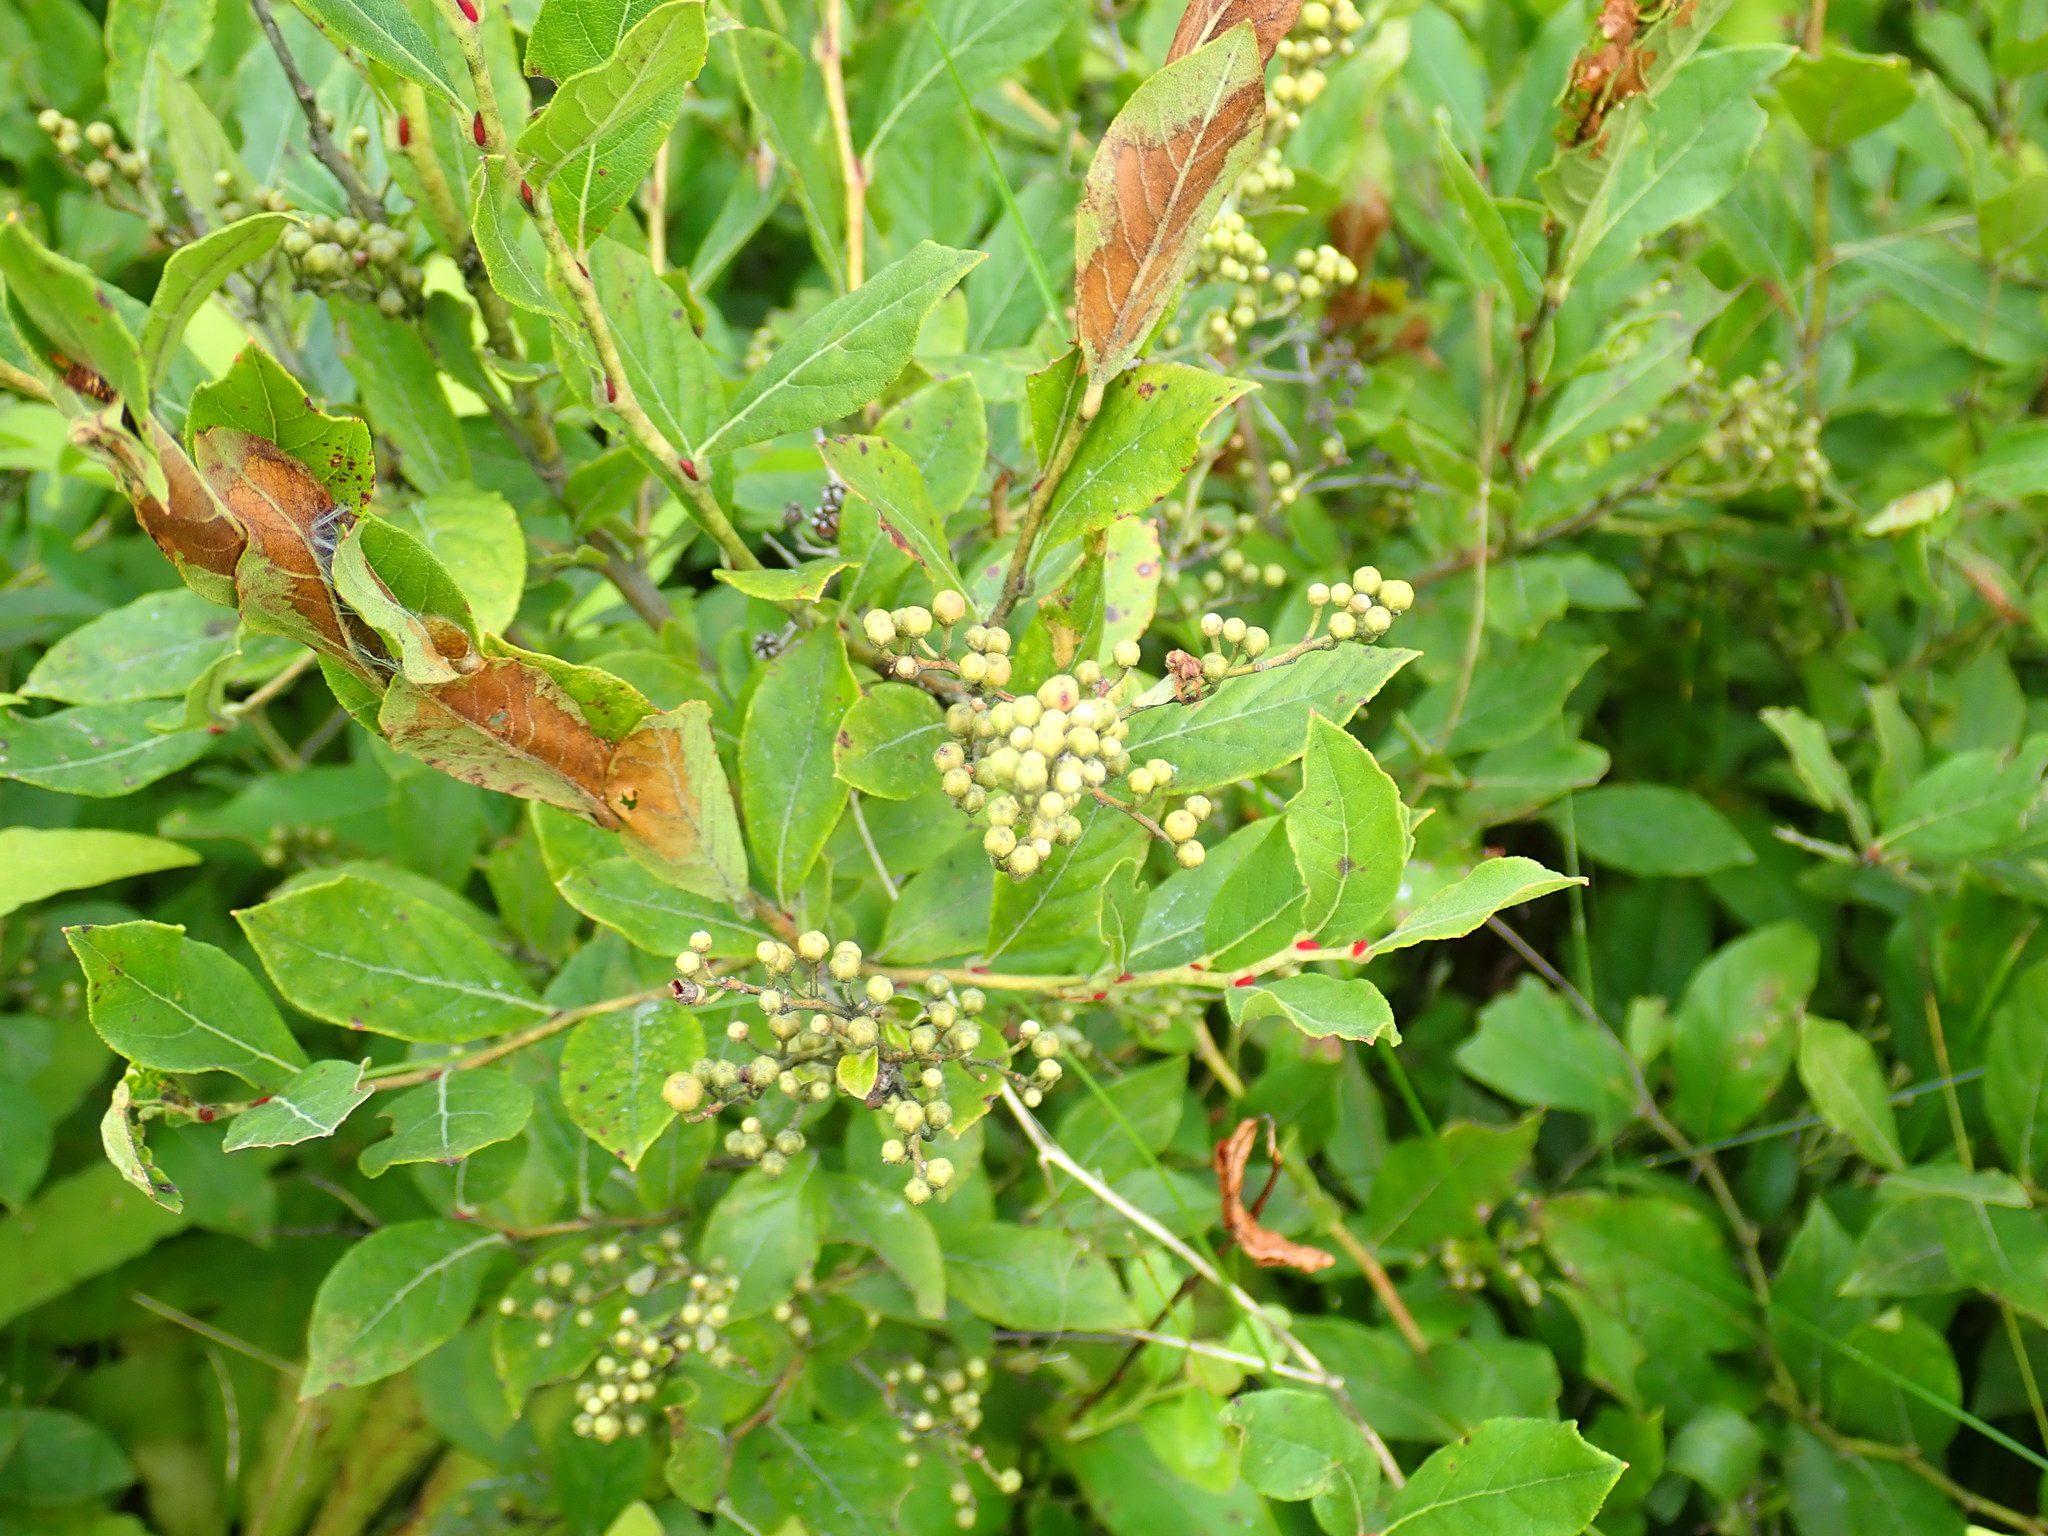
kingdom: Plantae
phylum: Tracheophyta
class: Magnoliopsida
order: Ericales
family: Ericaceae
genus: Lyonia
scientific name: Lyonia ligustrina
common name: Maleberry
